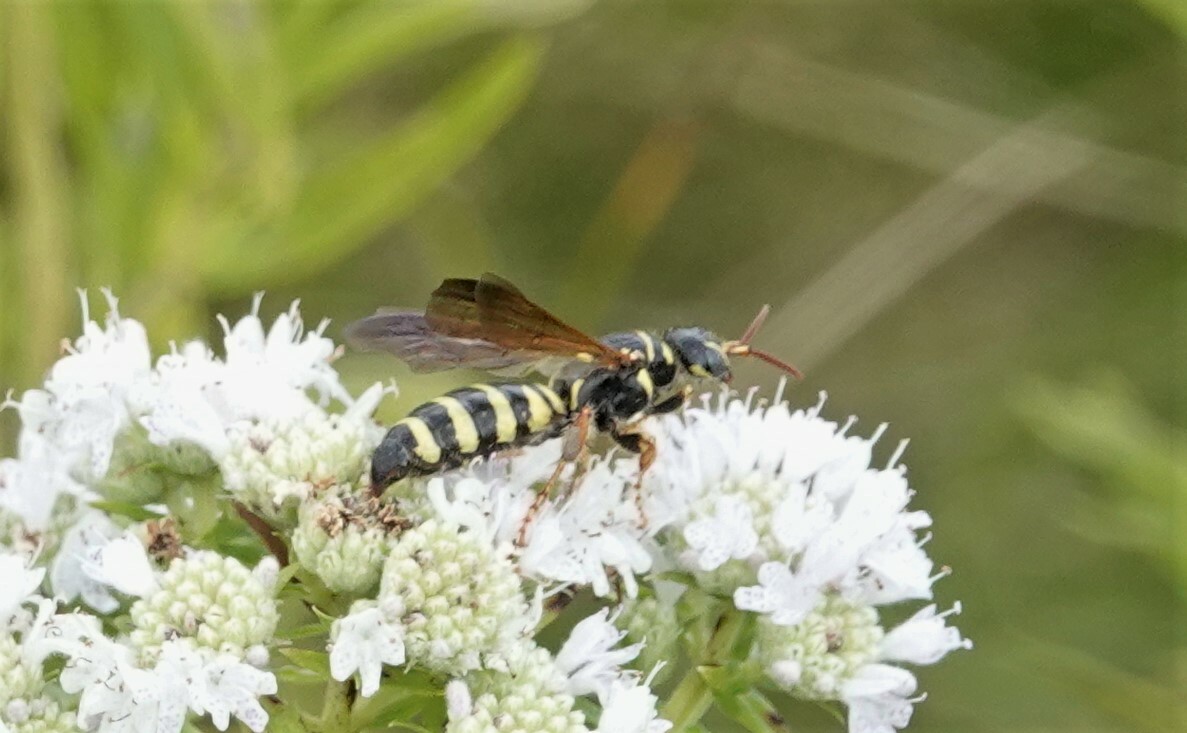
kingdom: Animalia
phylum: Arthropoda
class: Insecta
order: Hymenoptera
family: Tiphiidae
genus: Myzinum
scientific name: Myzinum quinquecinctum
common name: Five-banded thynnid wasp
